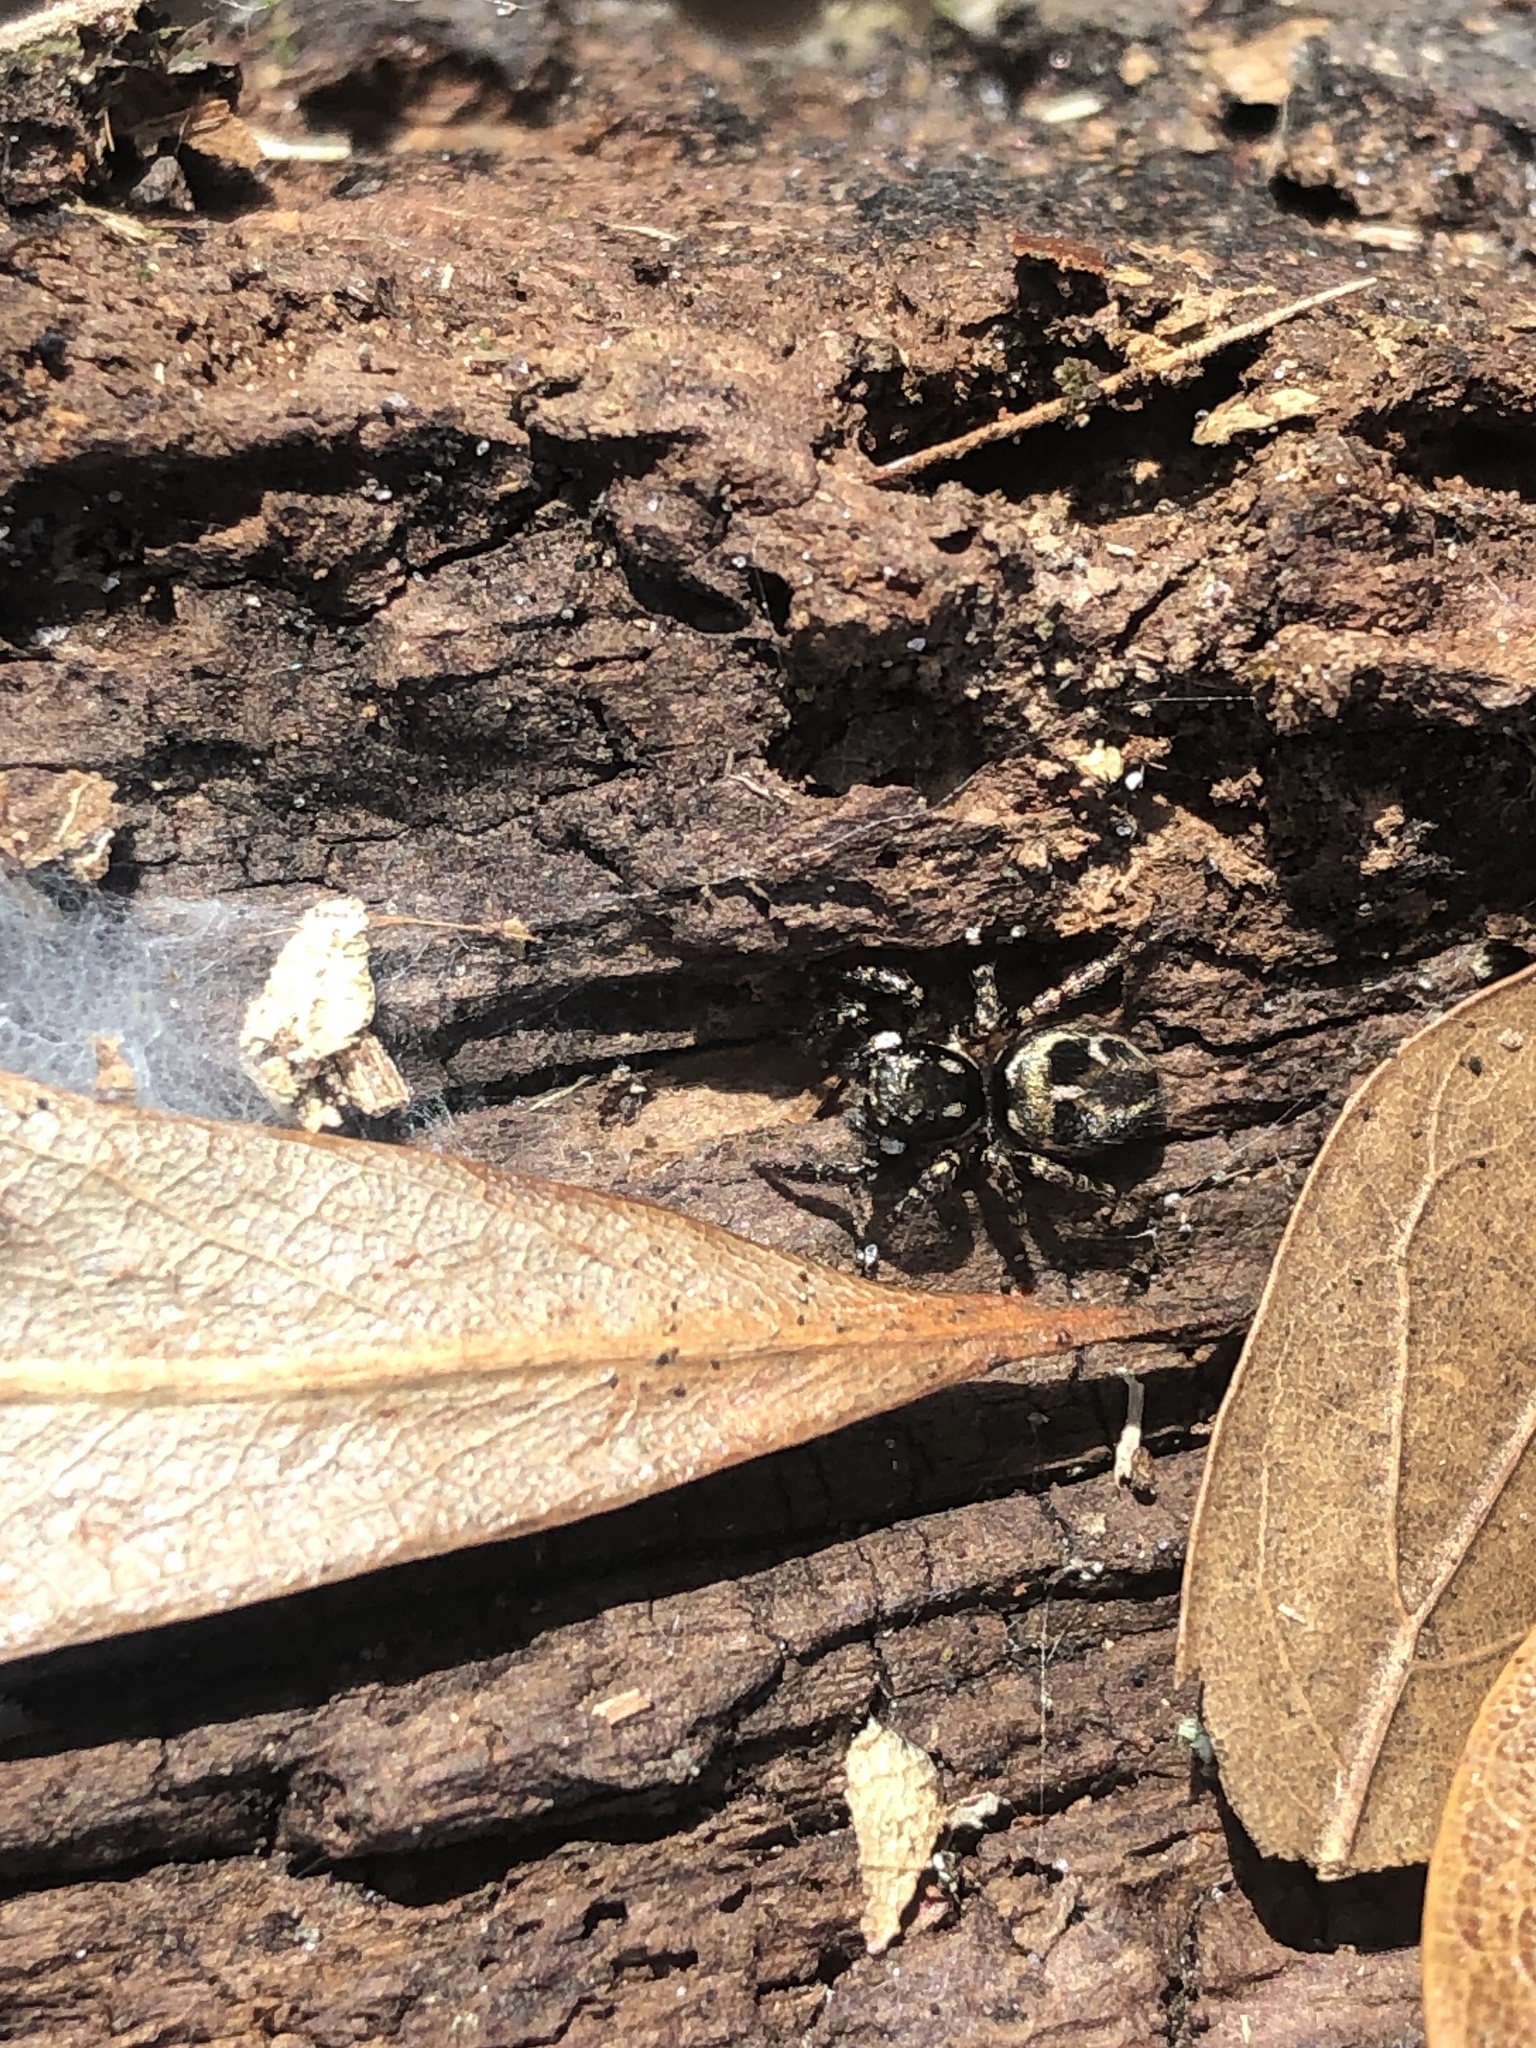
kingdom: Animalia
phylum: Arthropoda
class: Arachnida
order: Araneae
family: Salticidae
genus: Anasaitis
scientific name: Anasaitis canosa
